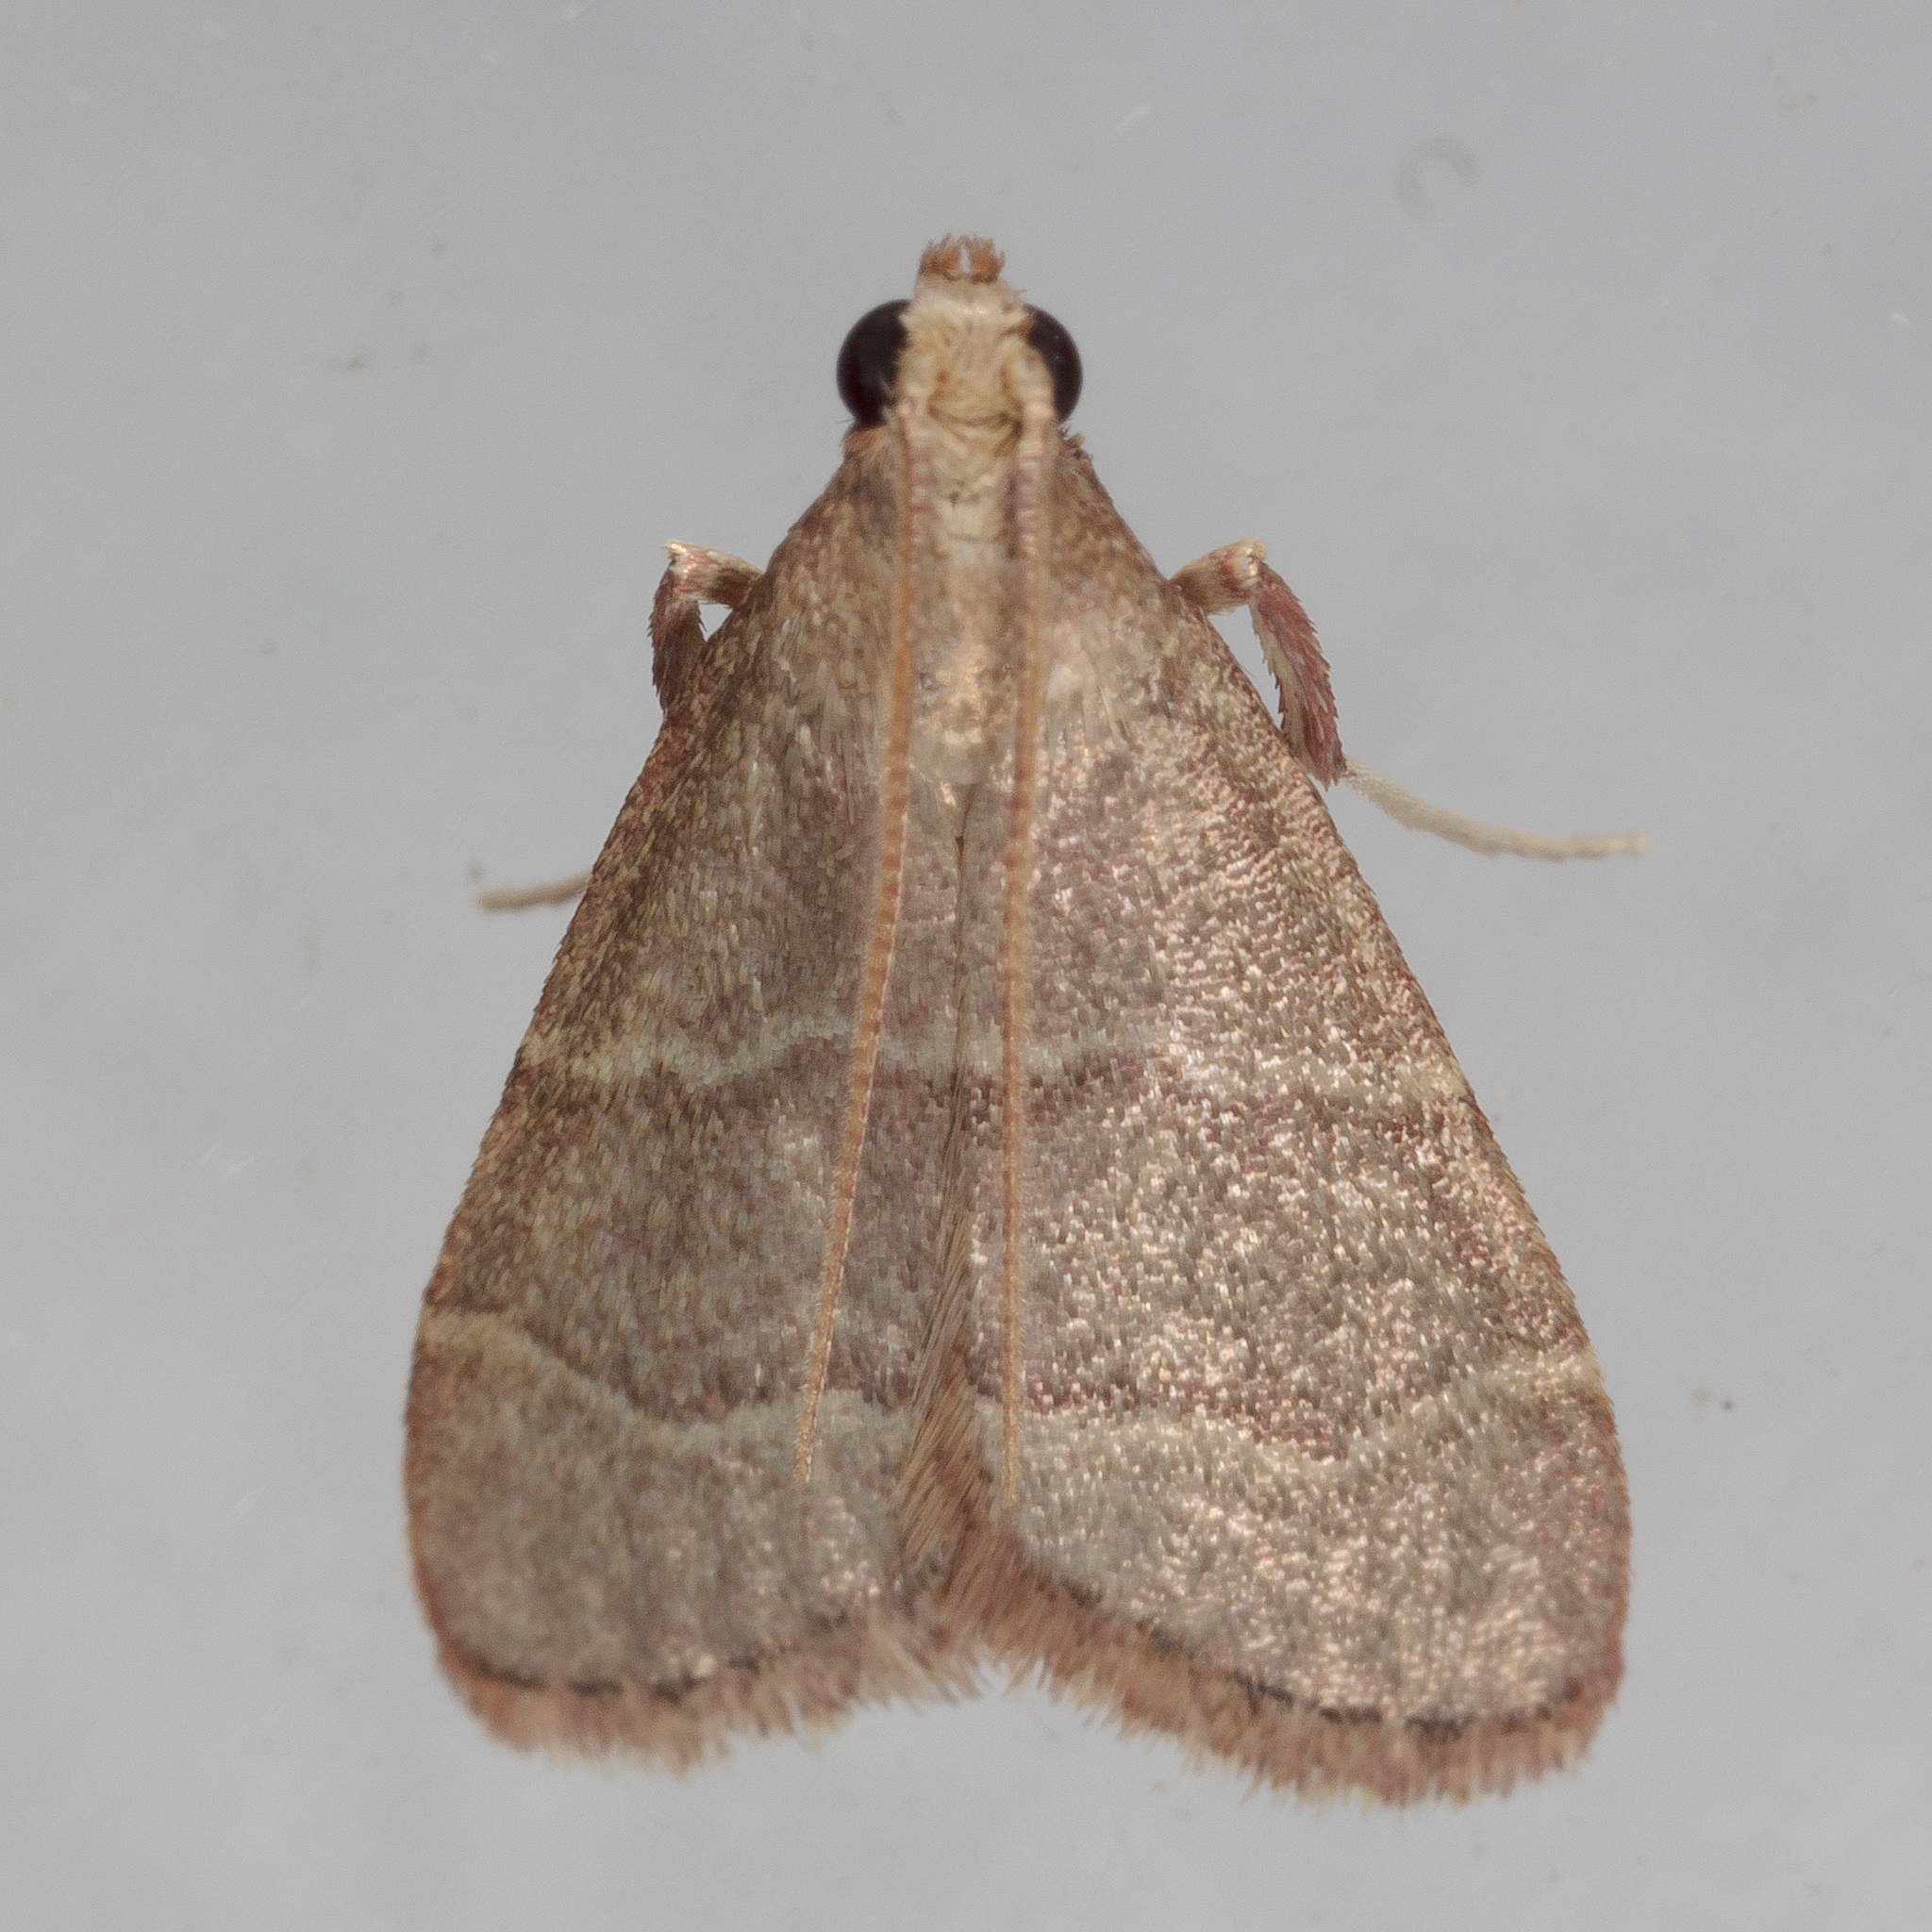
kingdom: Animalia
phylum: Arthropoda
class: Insecta
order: Lepidoptera
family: Pyralidae
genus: Arta
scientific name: Arta epicoenalis
